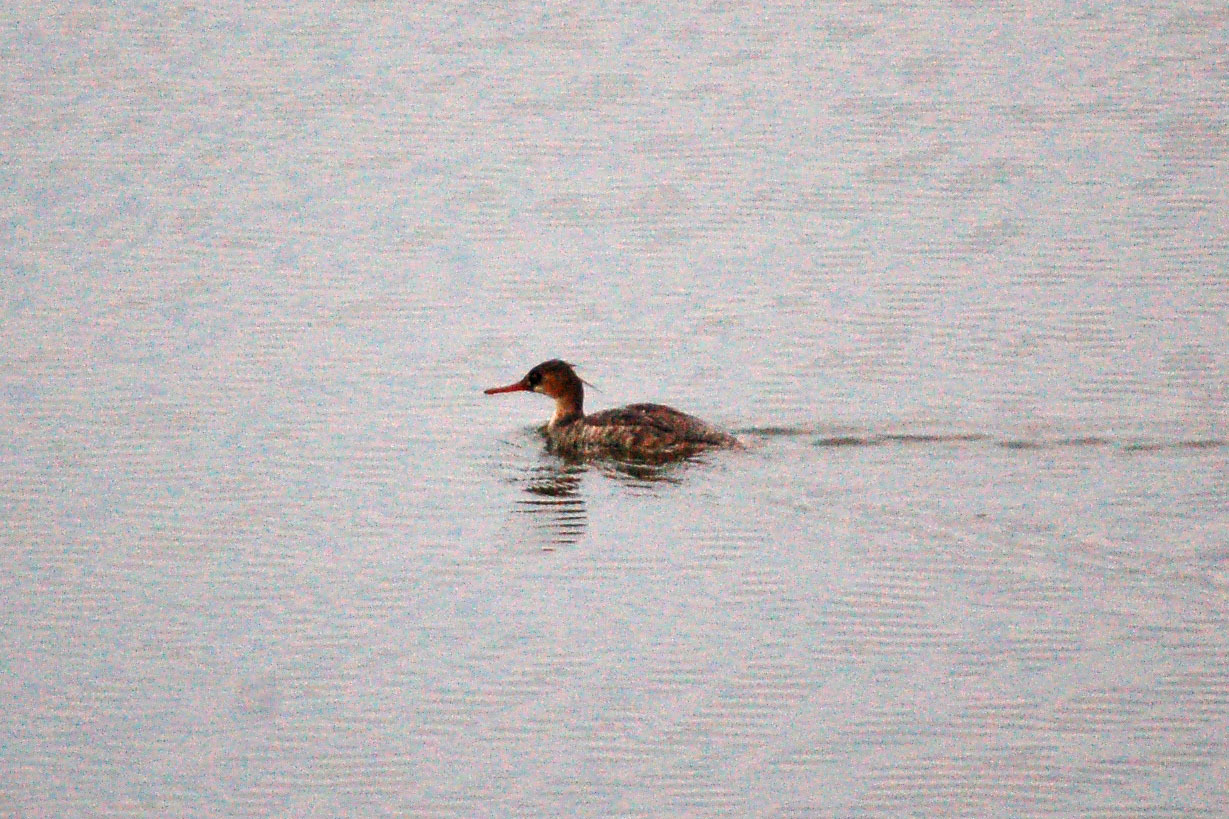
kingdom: Animalia
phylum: Chordata
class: Aves
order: Anseriformes
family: Anatidae
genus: Mergus
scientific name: Mergus serrator
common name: Red-breasted merganser
